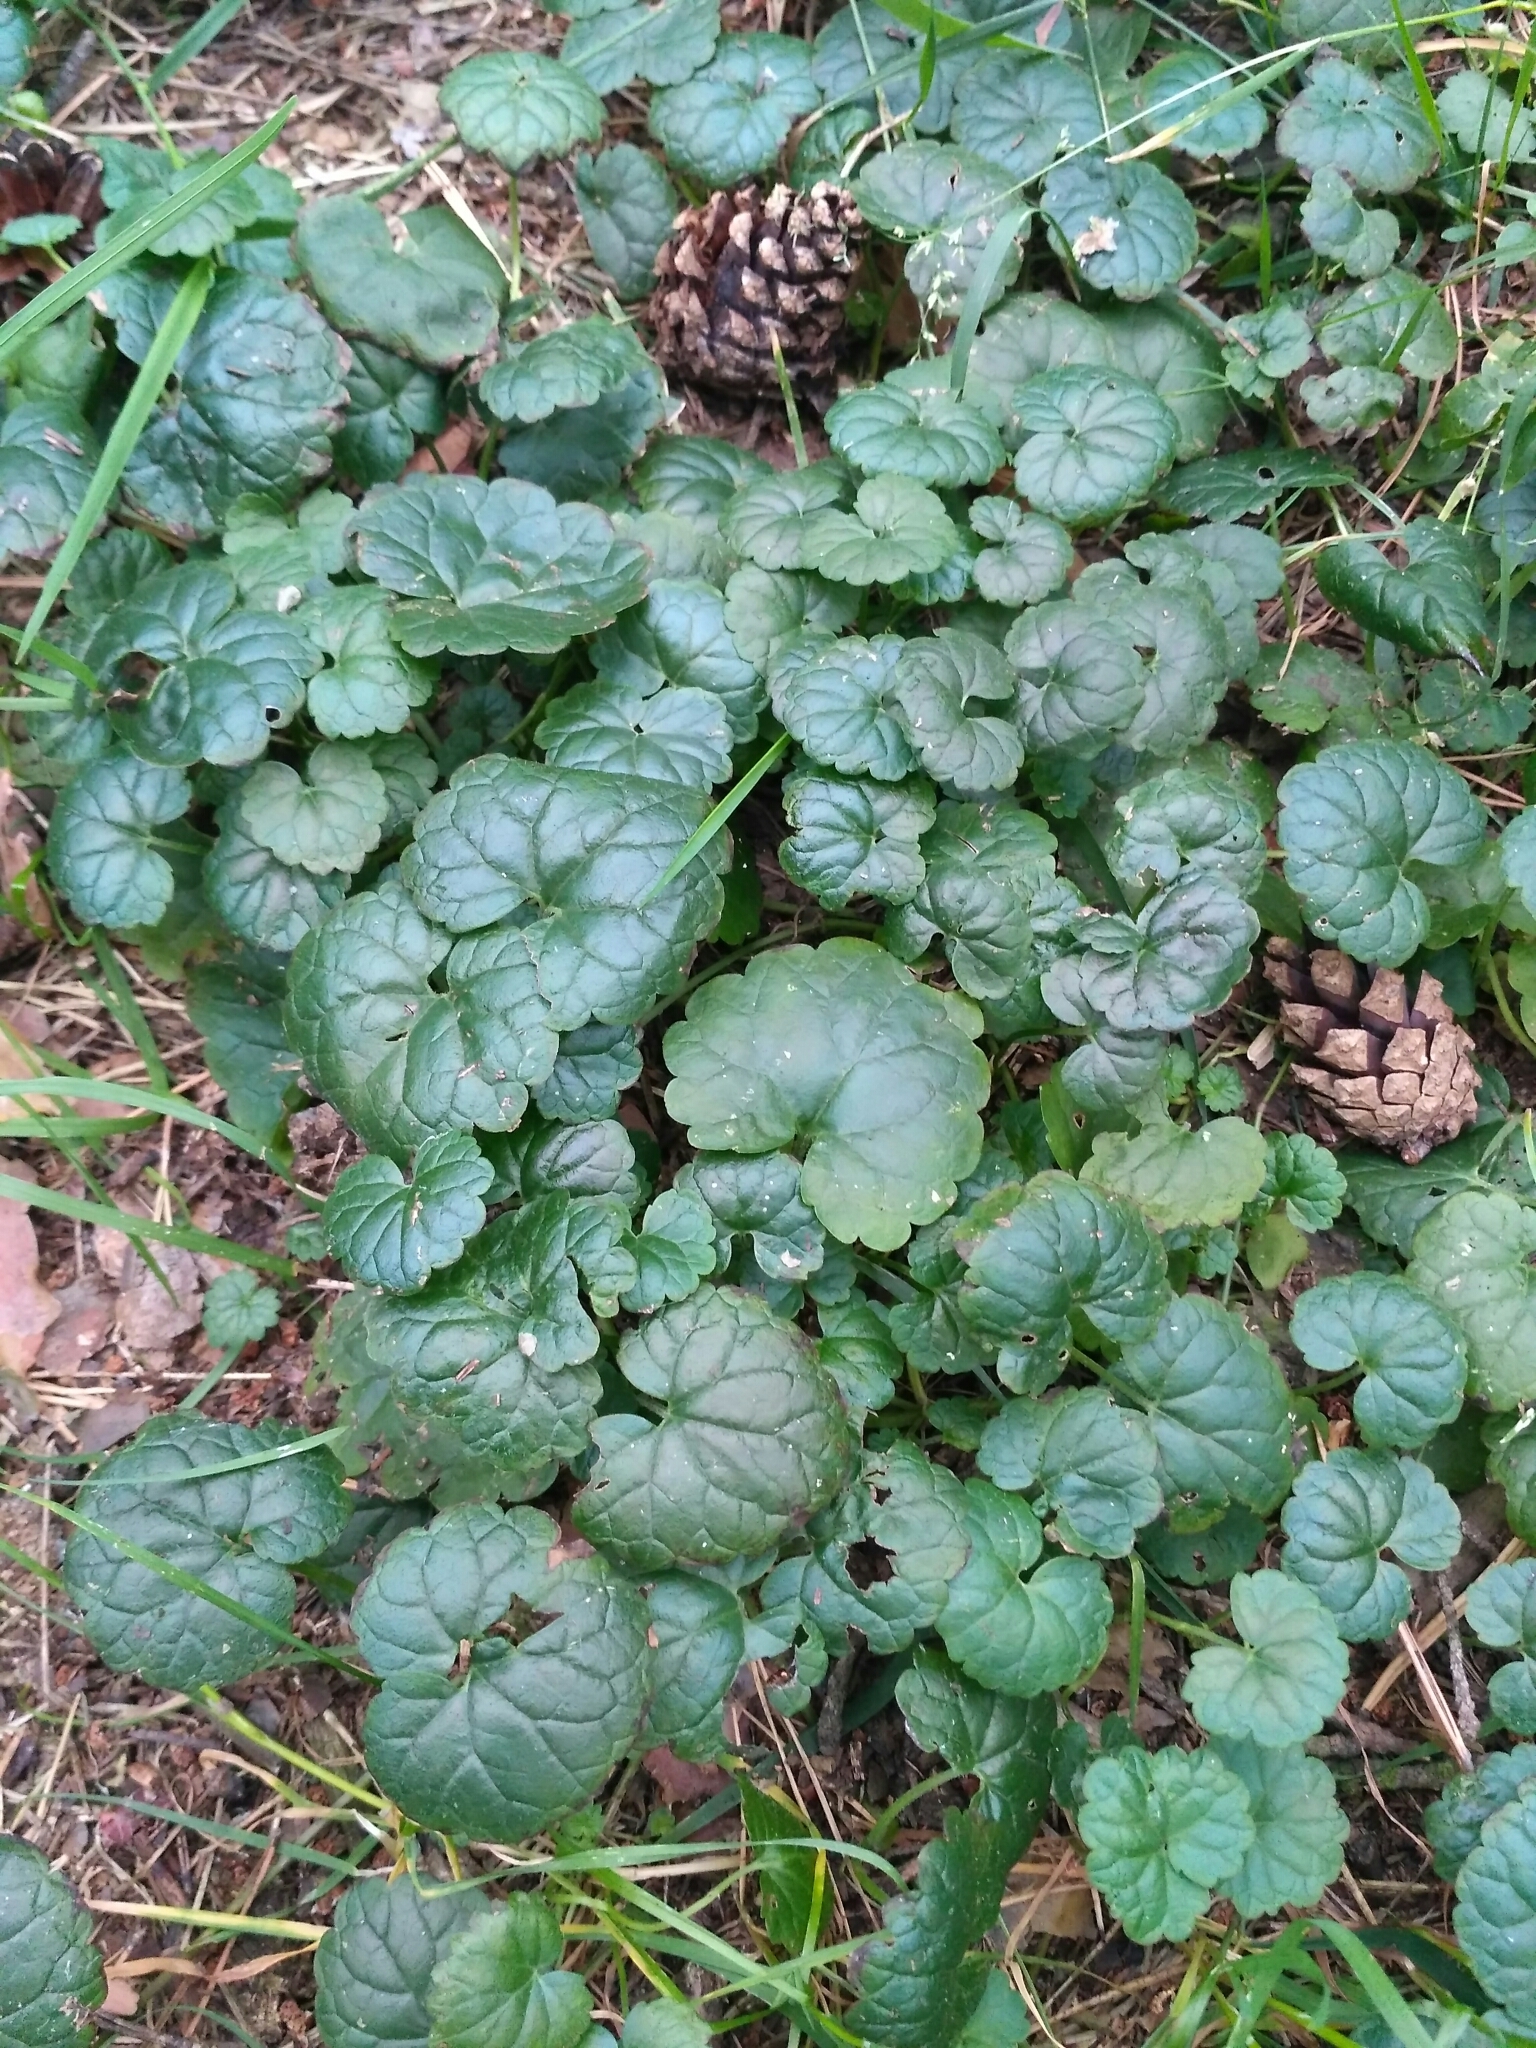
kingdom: Plantae
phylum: Tracheophyta
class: Magnoliopsida
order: Lamiales
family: Lamiaceae
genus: Glechoma
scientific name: Glechoma hederacea
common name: Ground ivy
